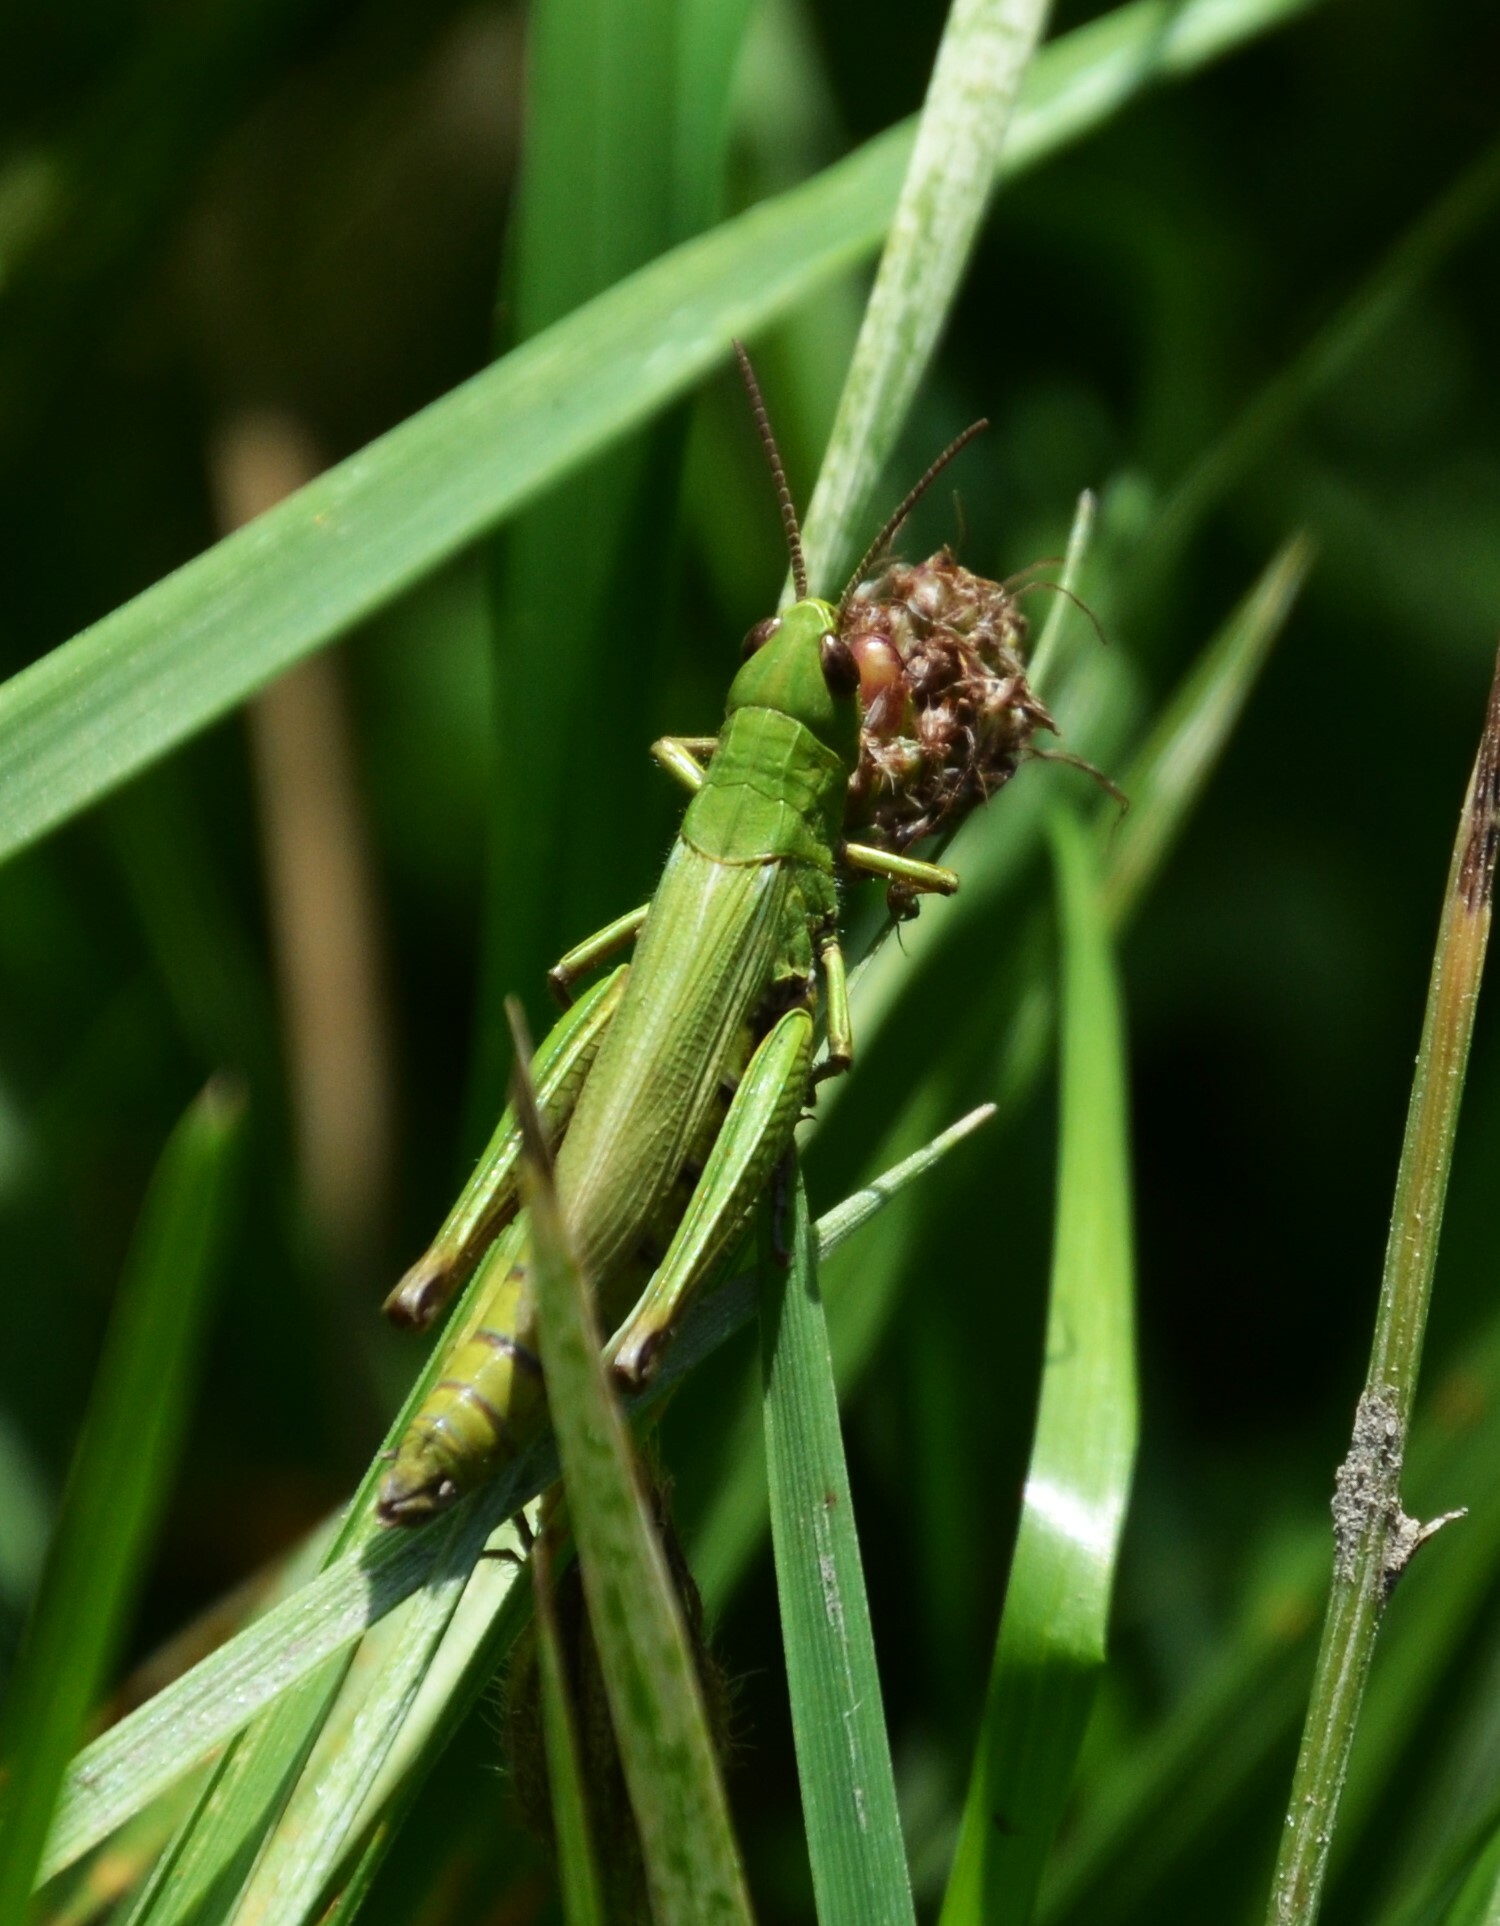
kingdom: Animalia
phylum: Arthropoda
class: Insecta
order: Orthoptera
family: Acrididae
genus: Chorthippus
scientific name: Chorthippus dorsatus
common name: Steppe grasshopper
